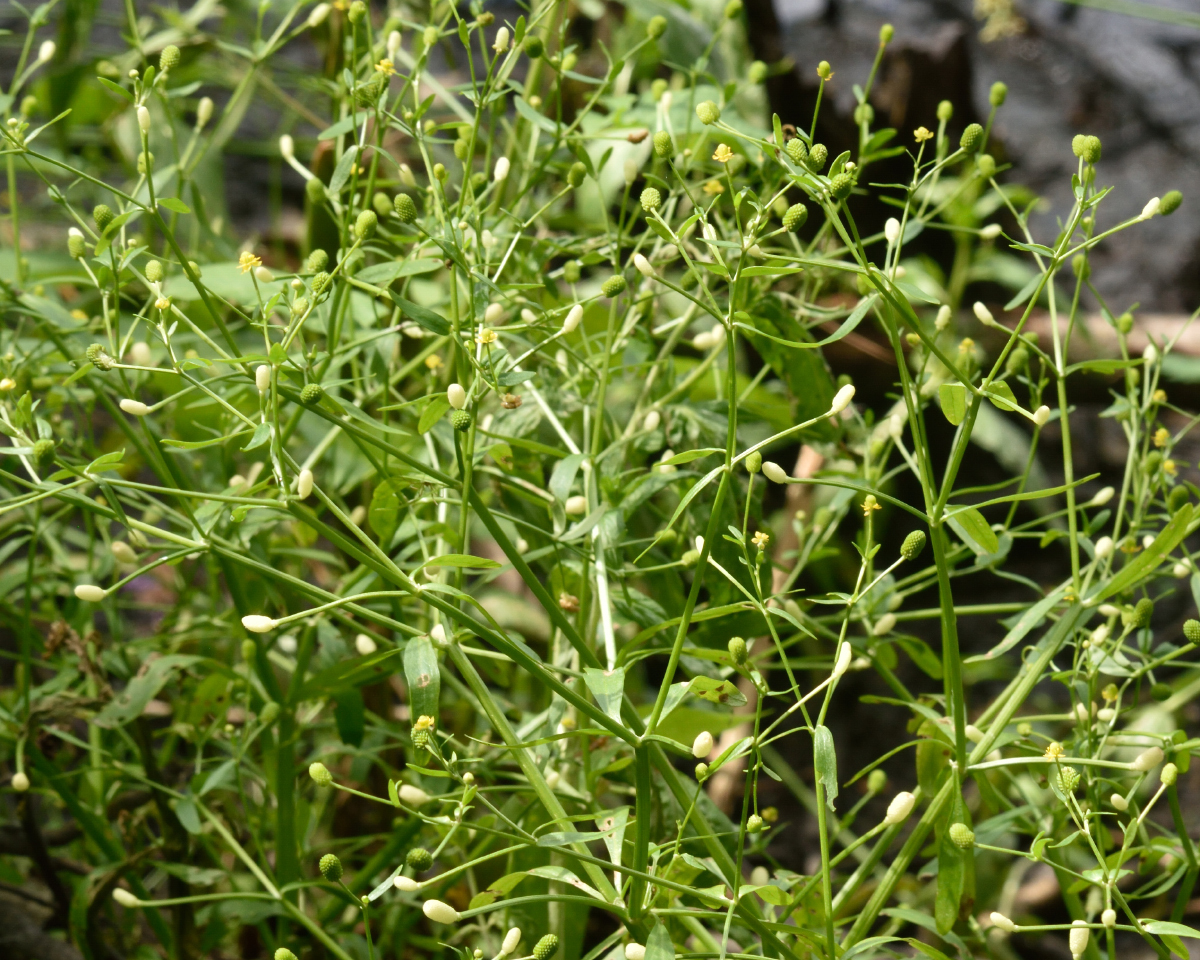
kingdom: Plantae
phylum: Tracheophyta
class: Magnoliopsida
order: Ranunculales
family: Ranunculaceae
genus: Ranunculus
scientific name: Ranunculus sceleratus
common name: Celery-leaved buttercup
